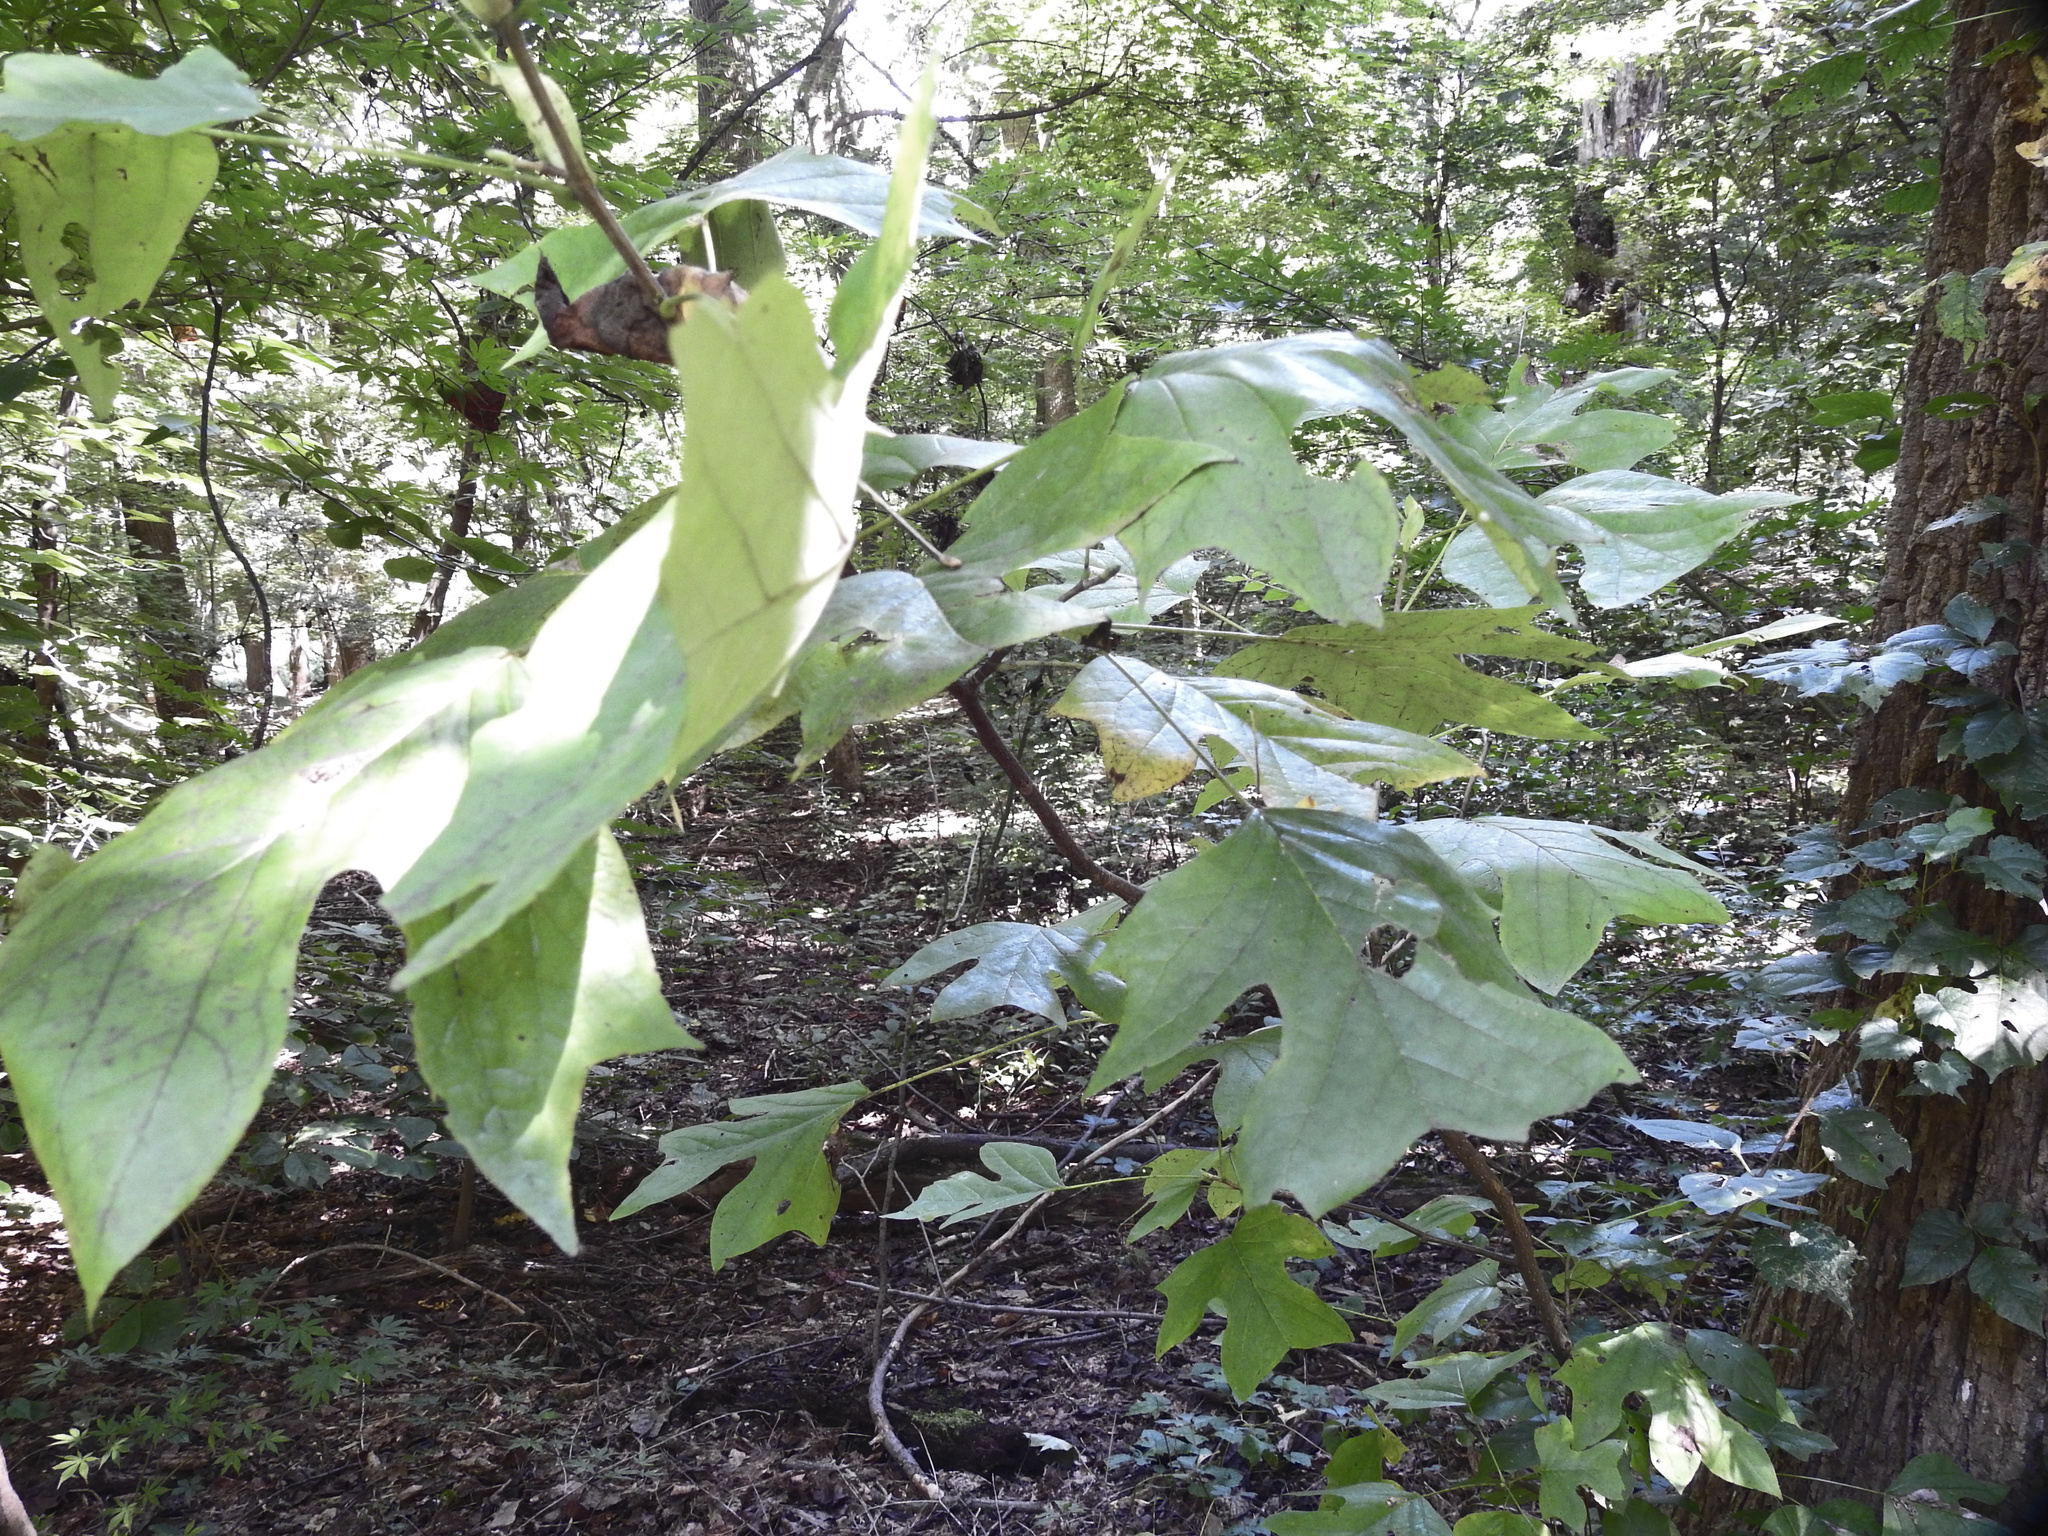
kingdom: Plantae
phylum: Tracheophyta
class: Magnoliopsida
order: Magnoliales
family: Magnoliaceae
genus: Liriodendron
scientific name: Liriodendron tulipifera
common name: Tulip tree
